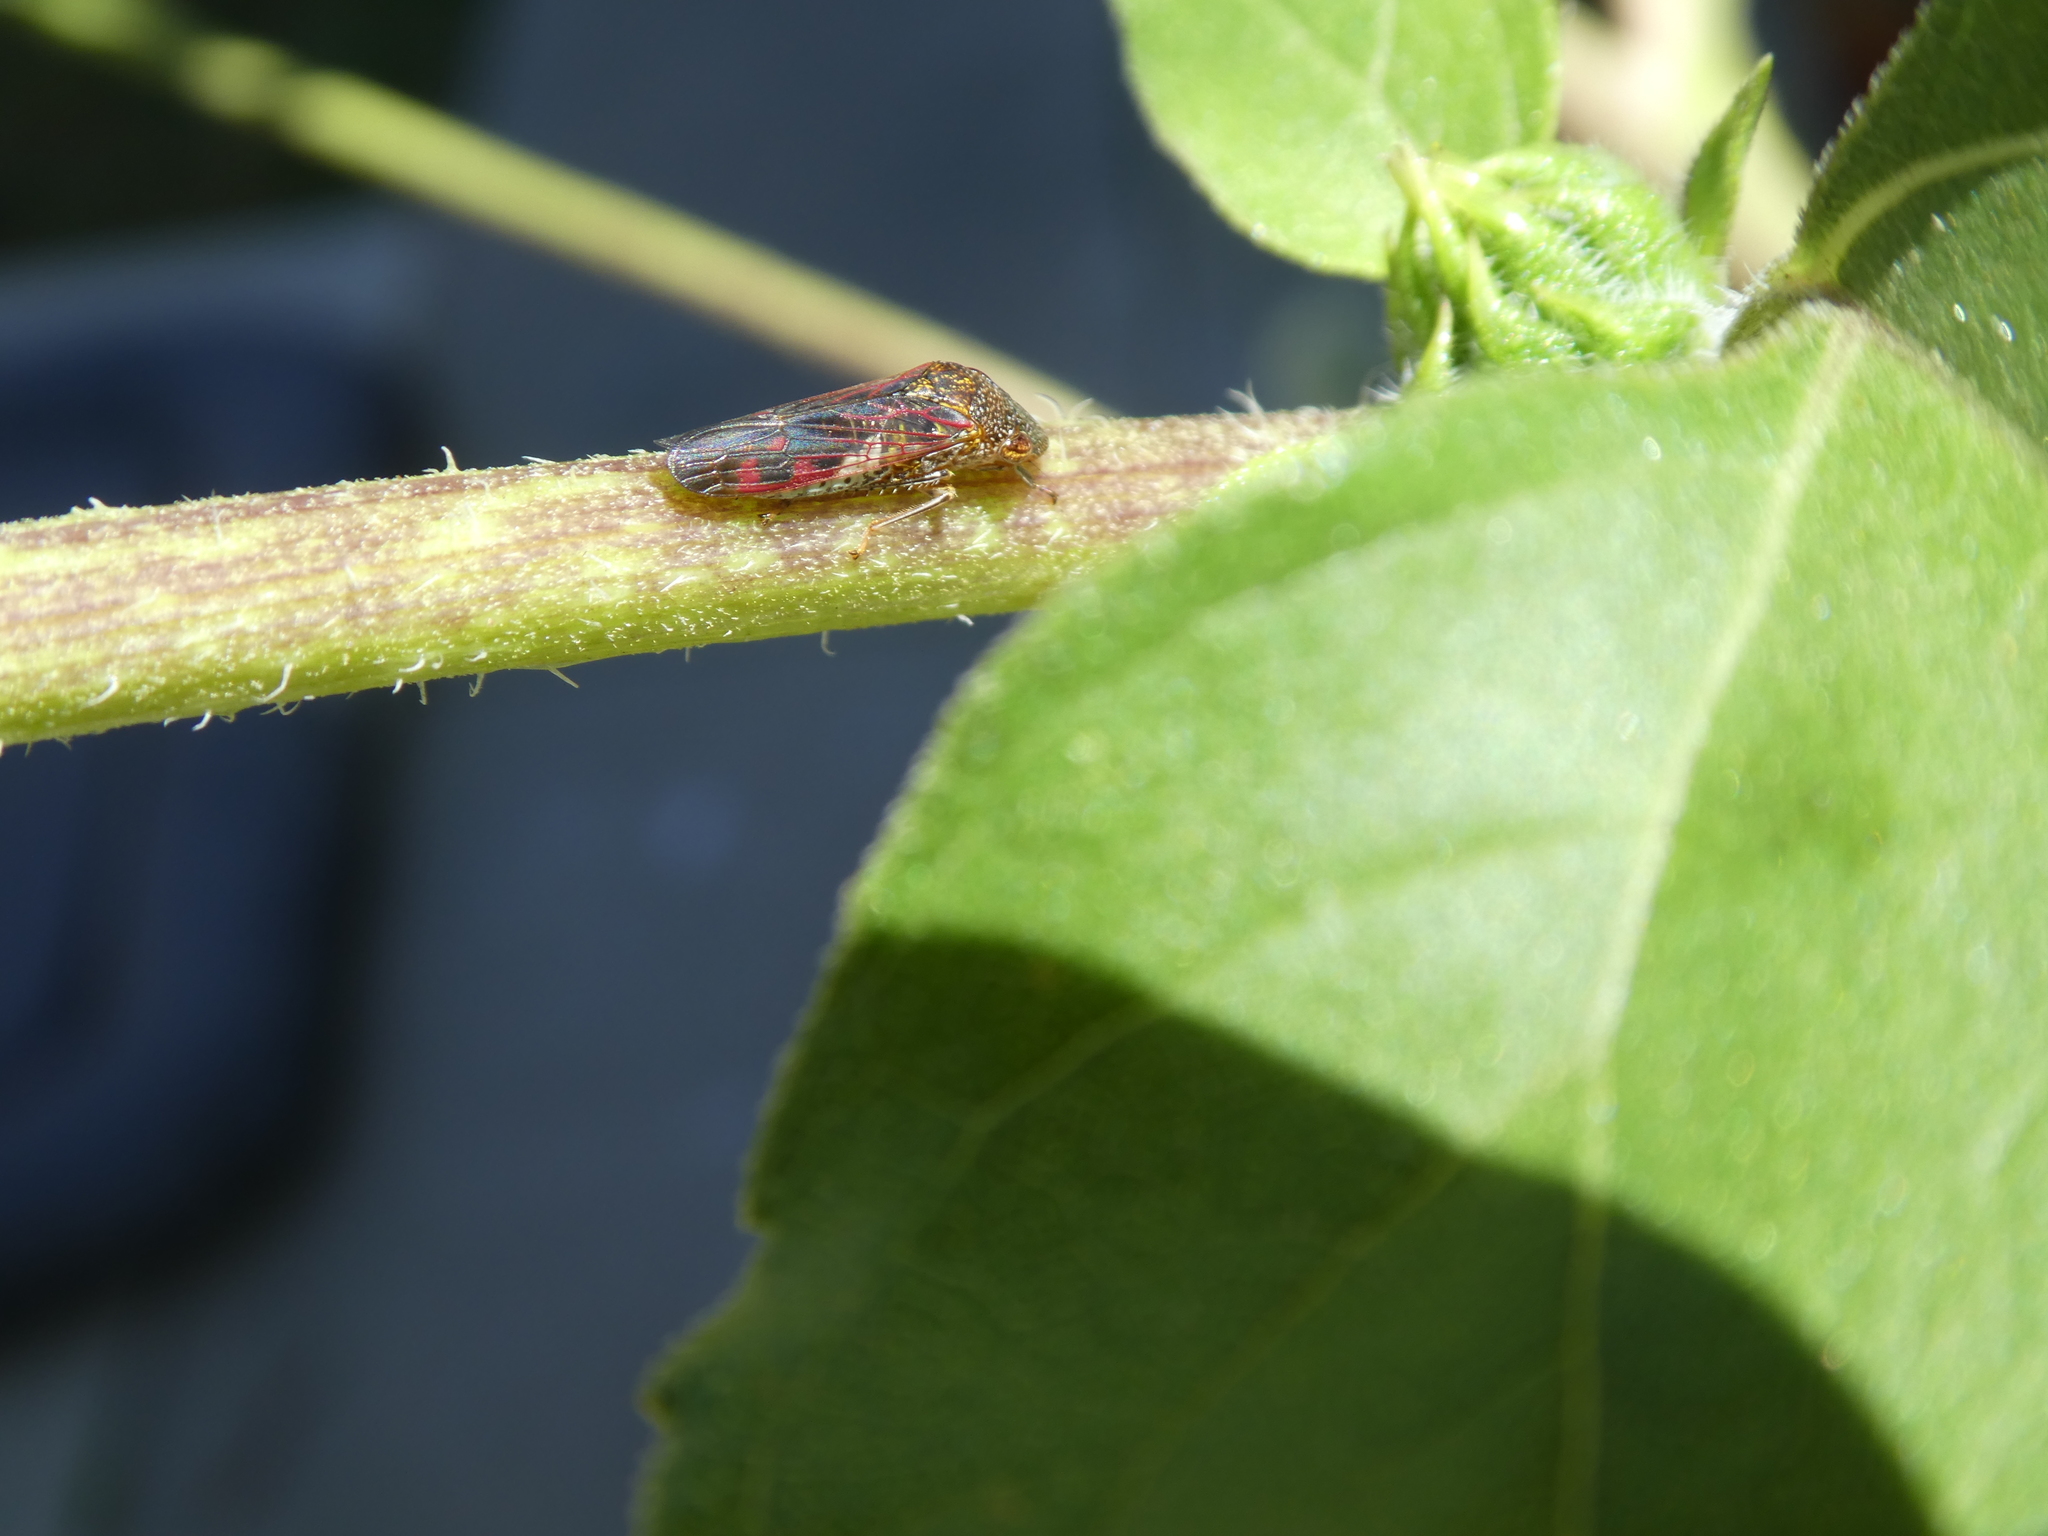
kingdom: Animalia
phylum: Arthropoda
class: Insecta
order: Hemiptera
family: Cicadellidae
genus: Homalodisca
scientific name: Homalodisca vitripennis
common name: Glassy-winged sharpshooter
